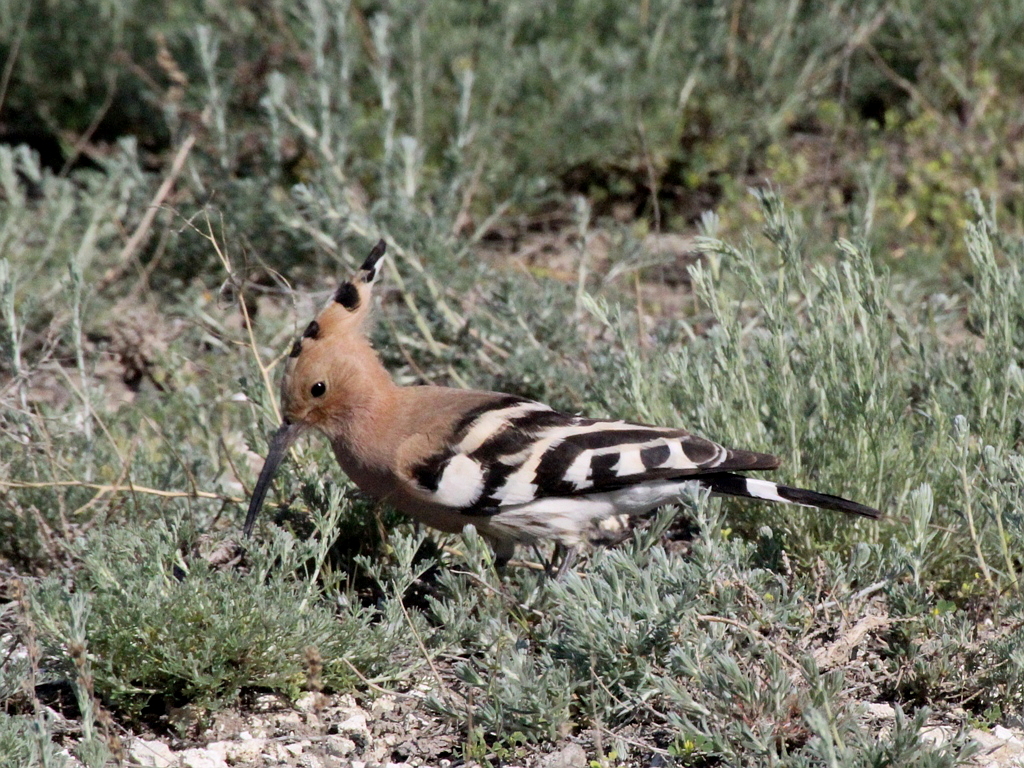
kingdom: Animalia
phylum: Chordata
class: Aves
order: Bucerotiformes
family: Upupidae
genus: Upupa
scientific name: Upupa epops
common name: Eurasian hoopoe
